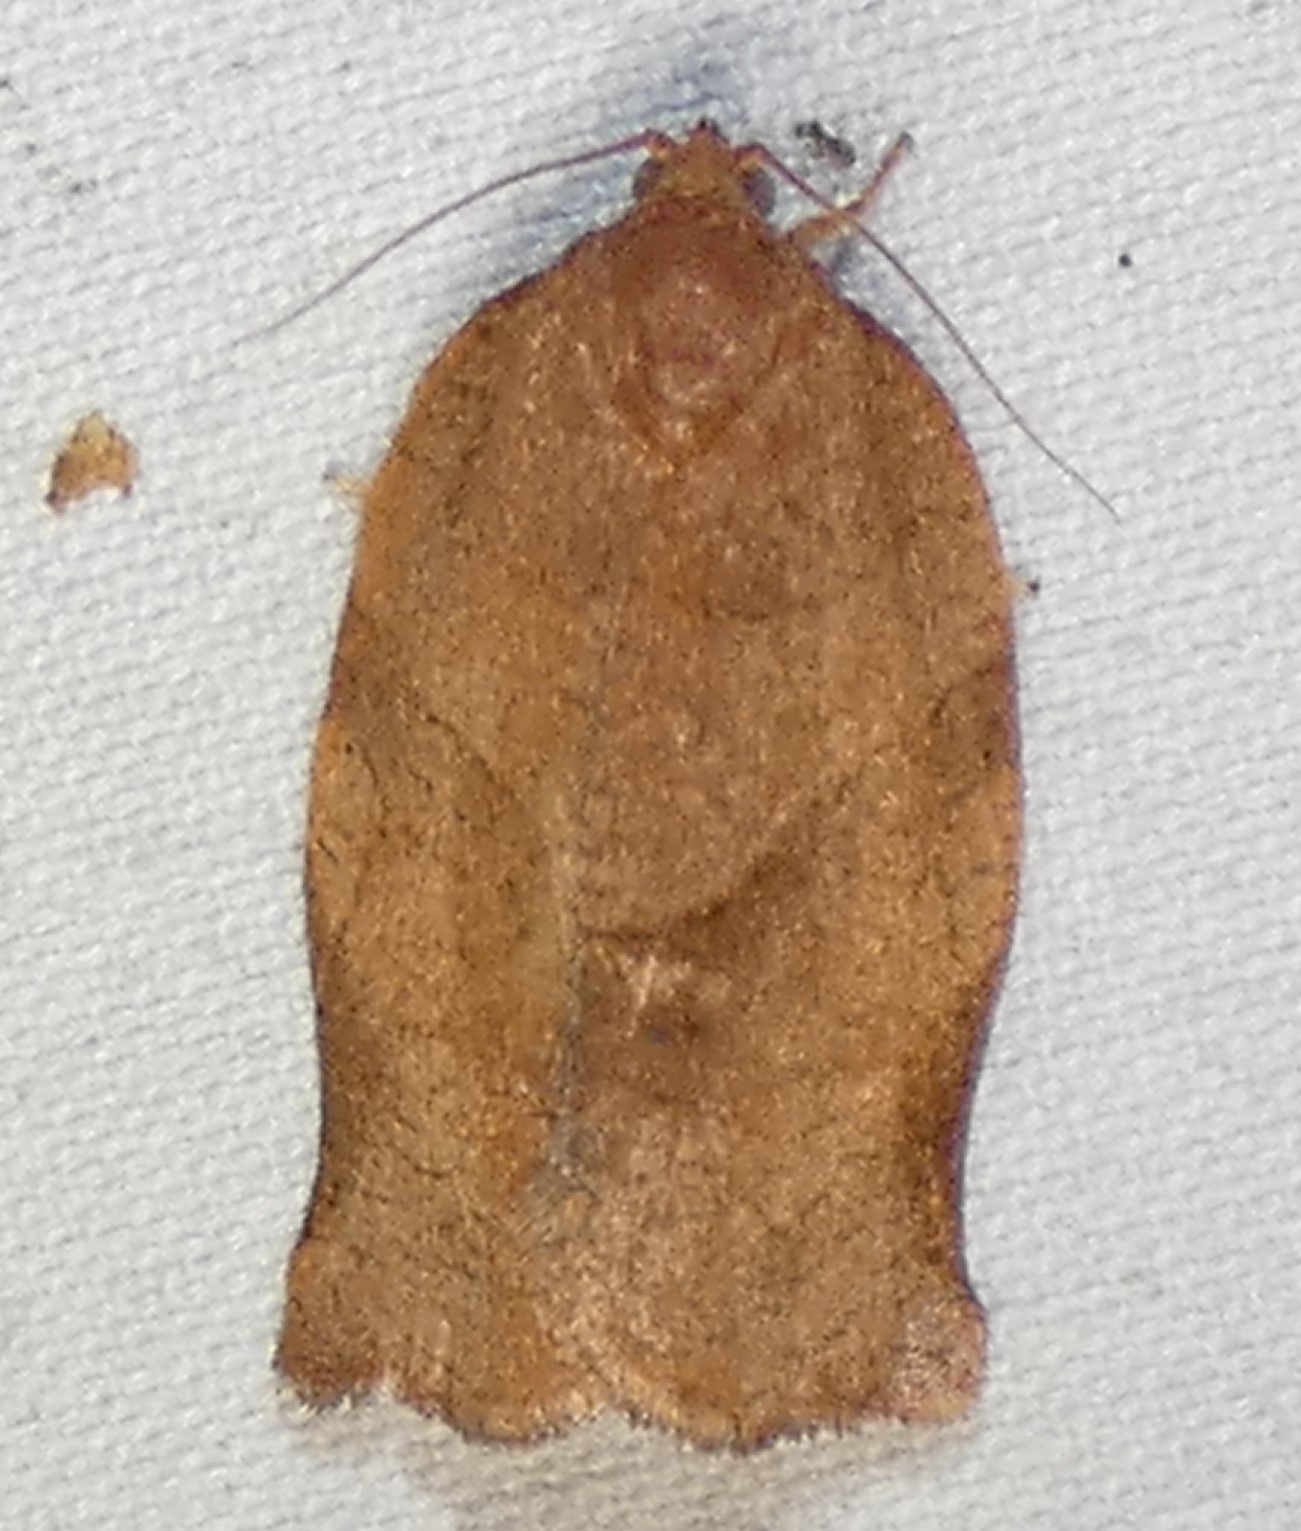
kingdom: Animalia
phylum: Arthropoda
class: Insecta
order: Lepidoptera
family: Tortricidae
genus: Choristoneura
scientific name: Choristoneura rosaceana
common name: Oblique-banded leafroller moth
